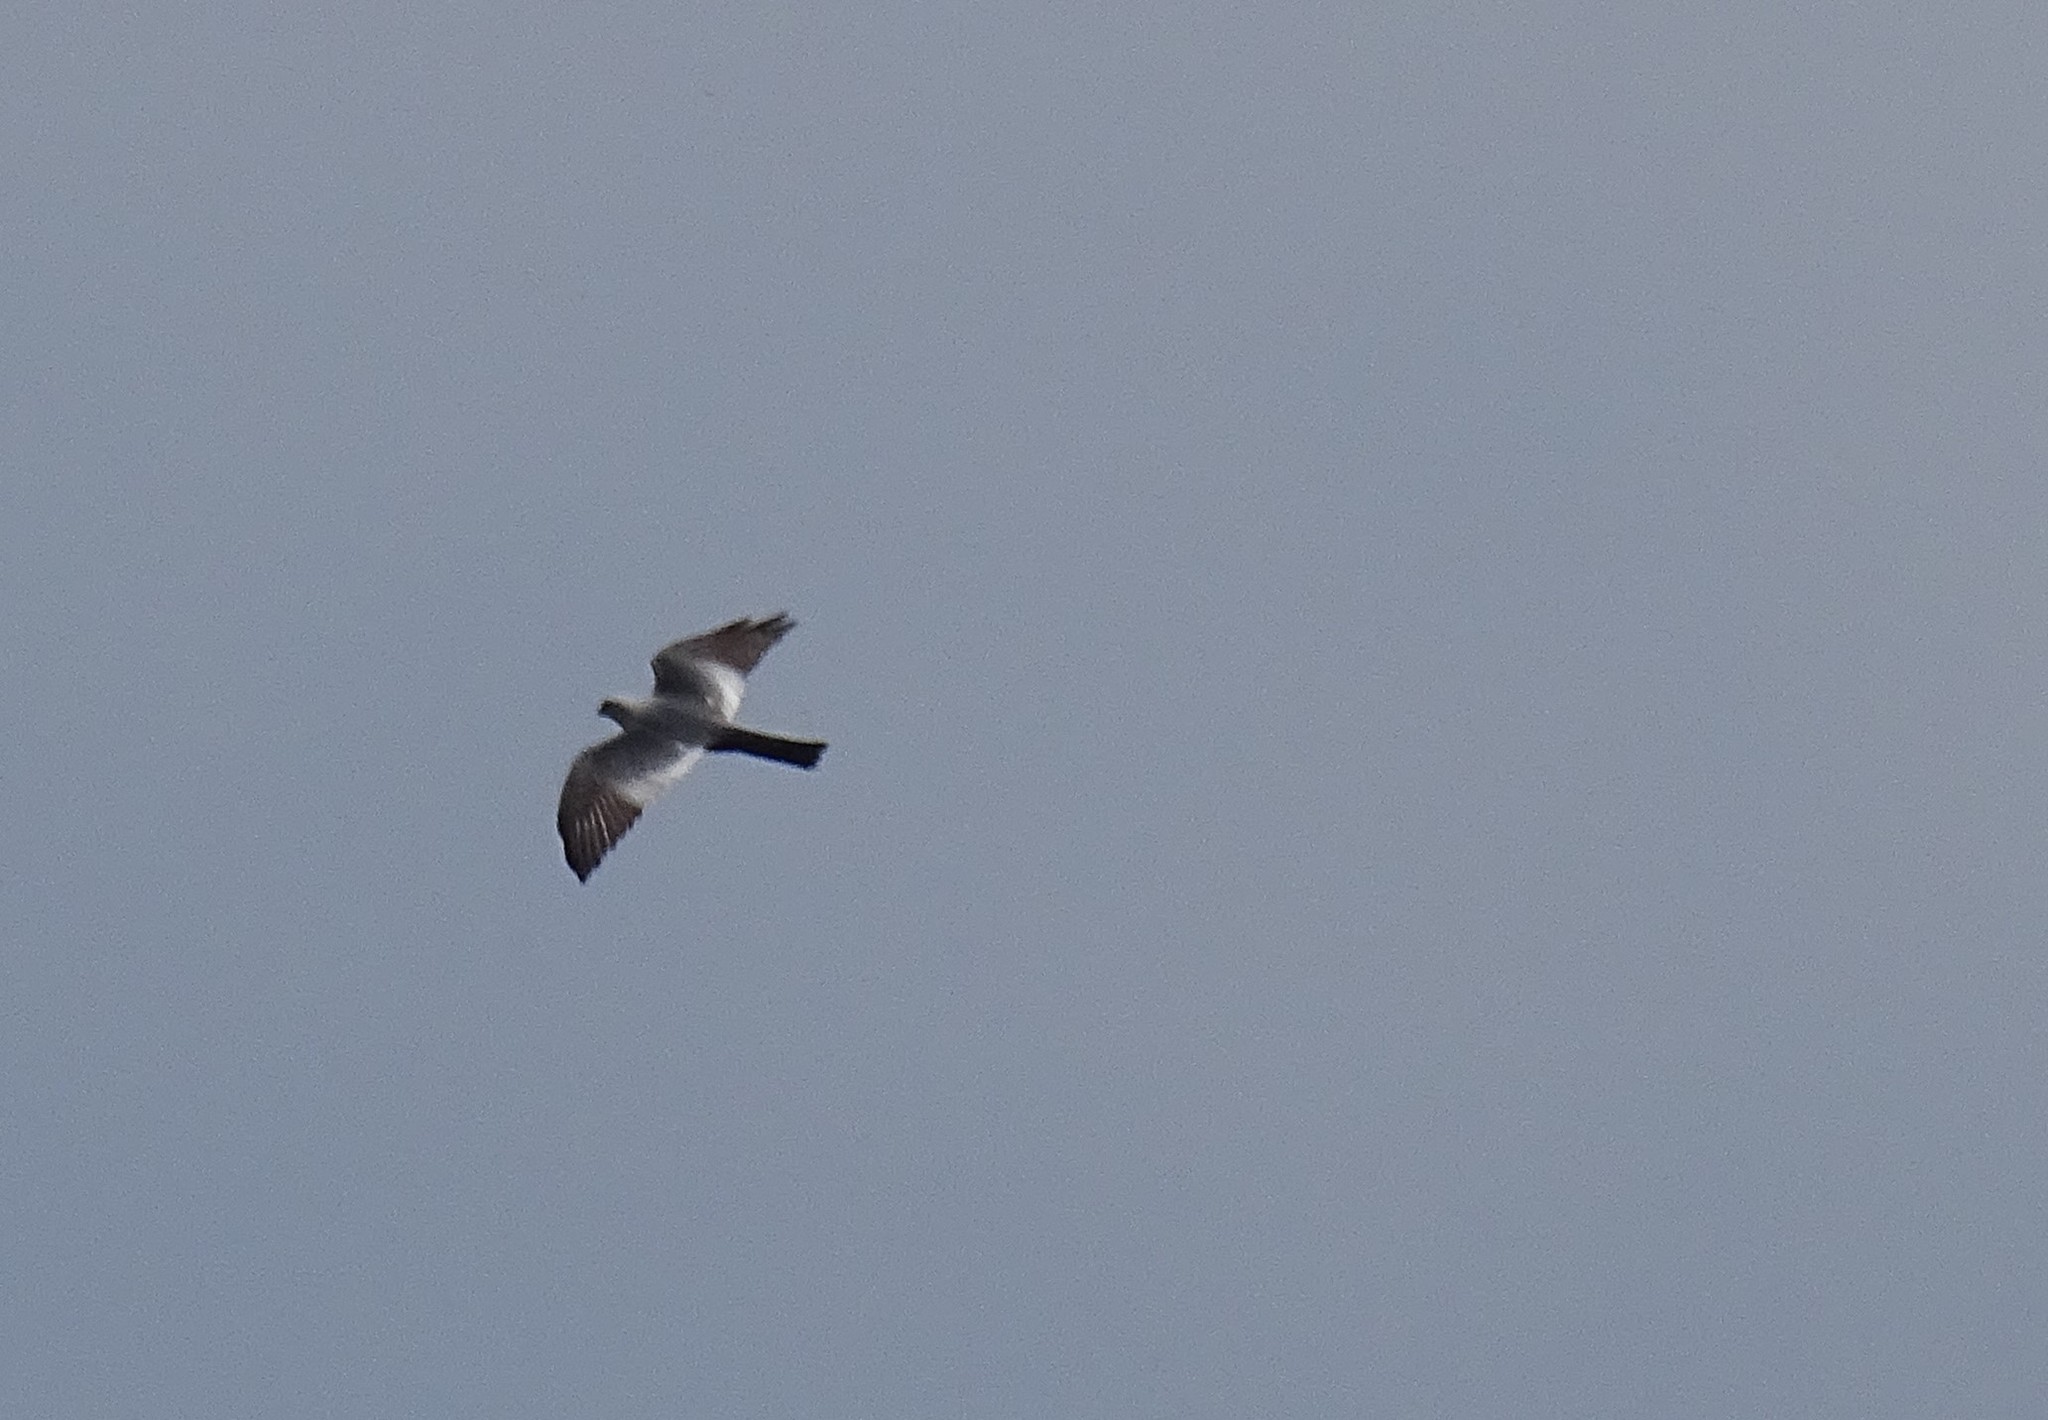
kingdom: Animalia
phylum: Chordata
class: Aves
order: Accipitriformes
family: Accipitridae
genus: Ictinia
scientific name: Ictinia mississippiensis
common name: Mississippi kite
